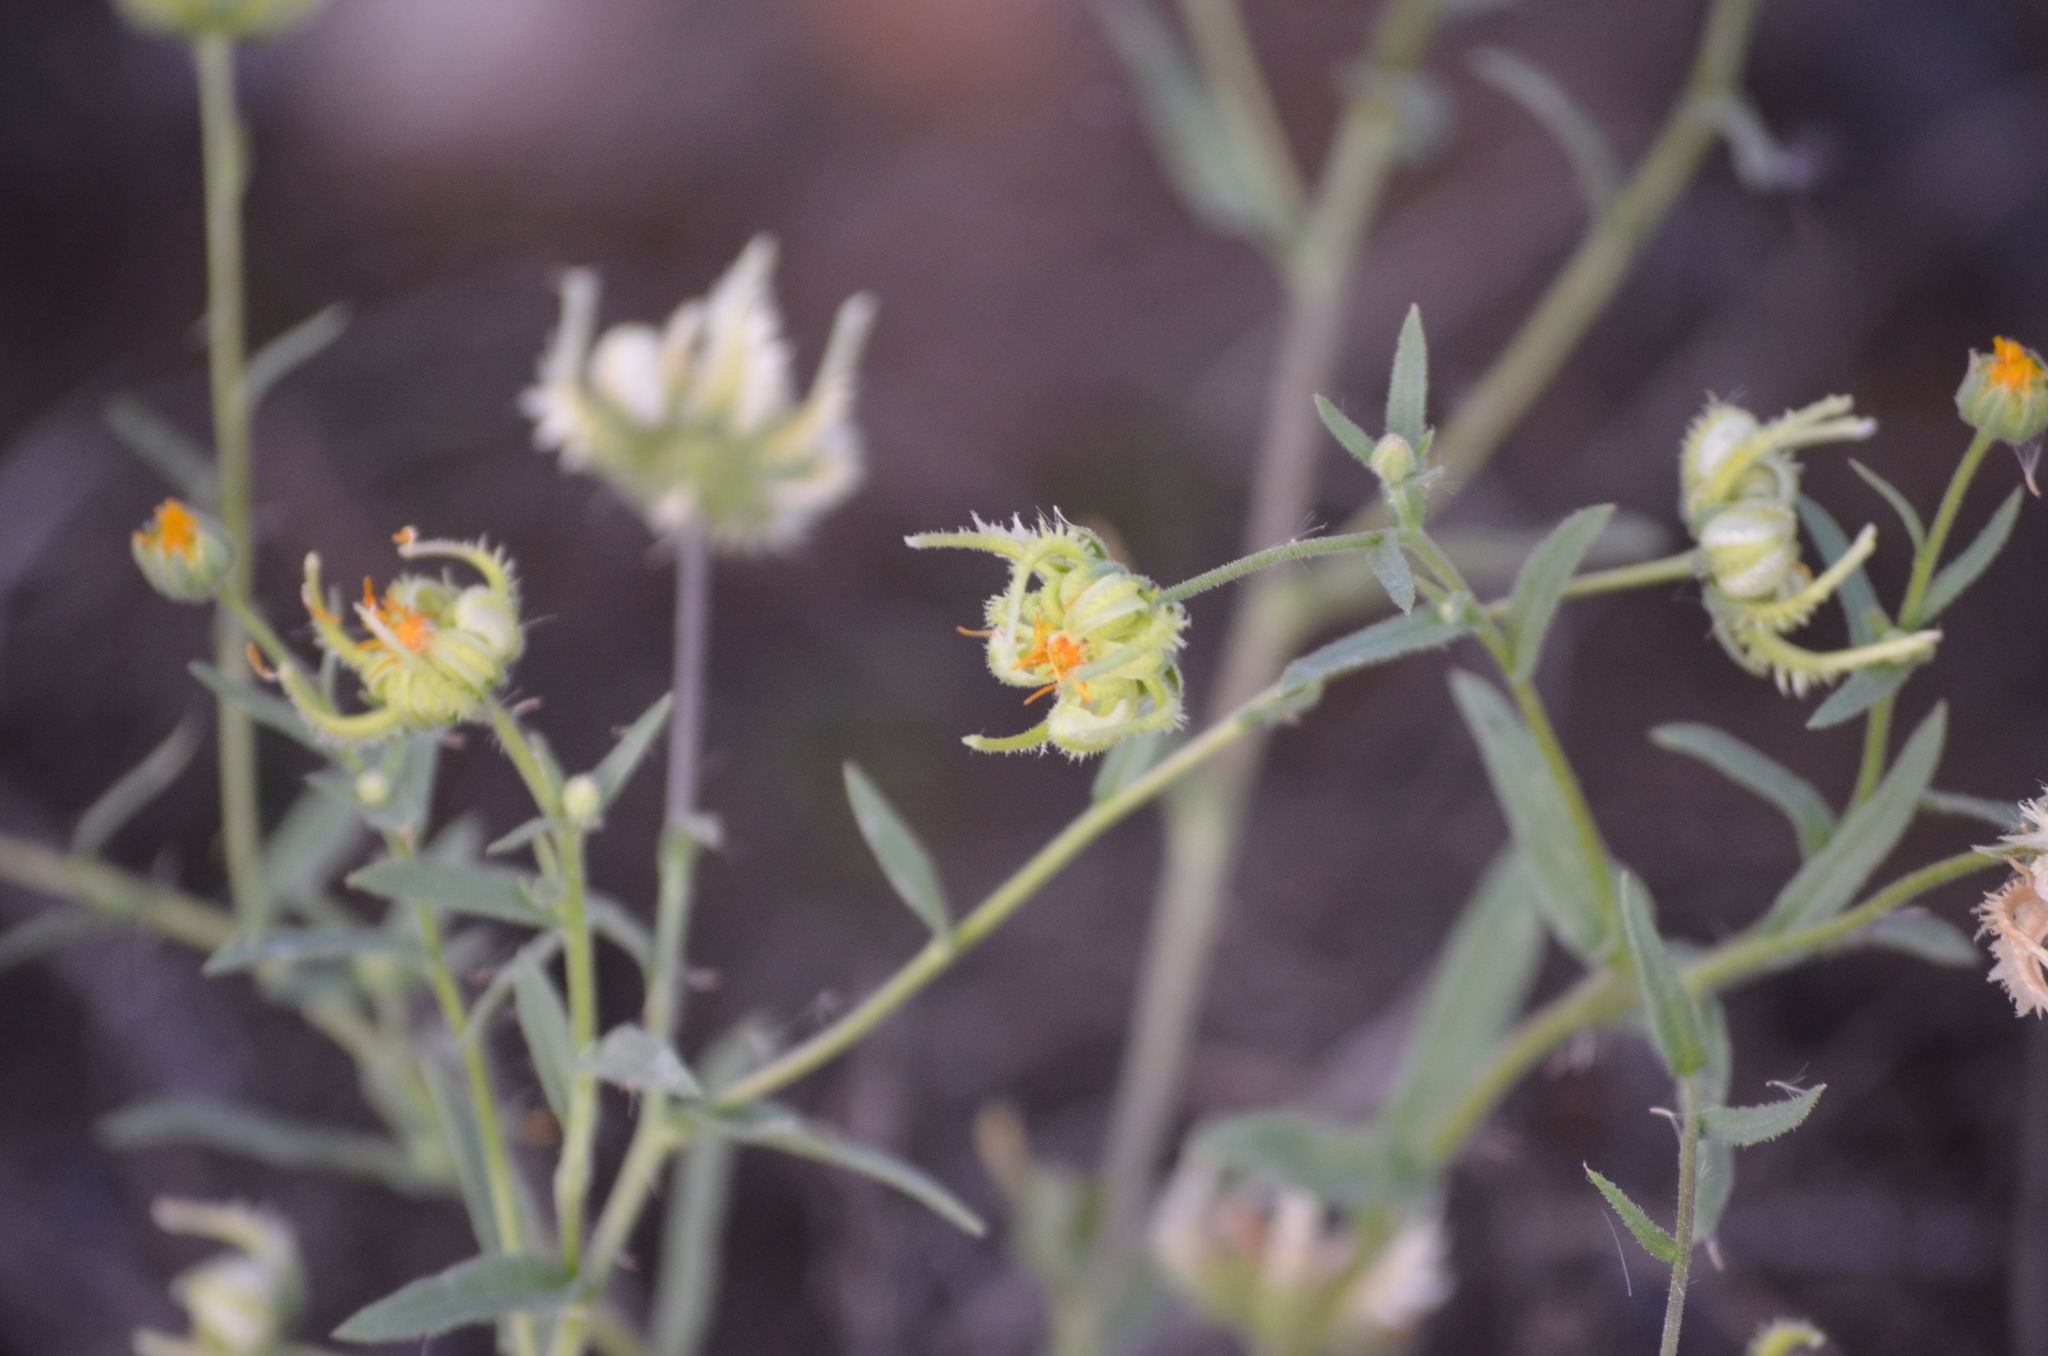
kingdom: Plantae
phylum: Tracheophyta
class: Magnoliopsida
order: Asterales
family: Asteraceae
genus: Calendula
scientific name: Calendula arvensis
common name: Field marigold
